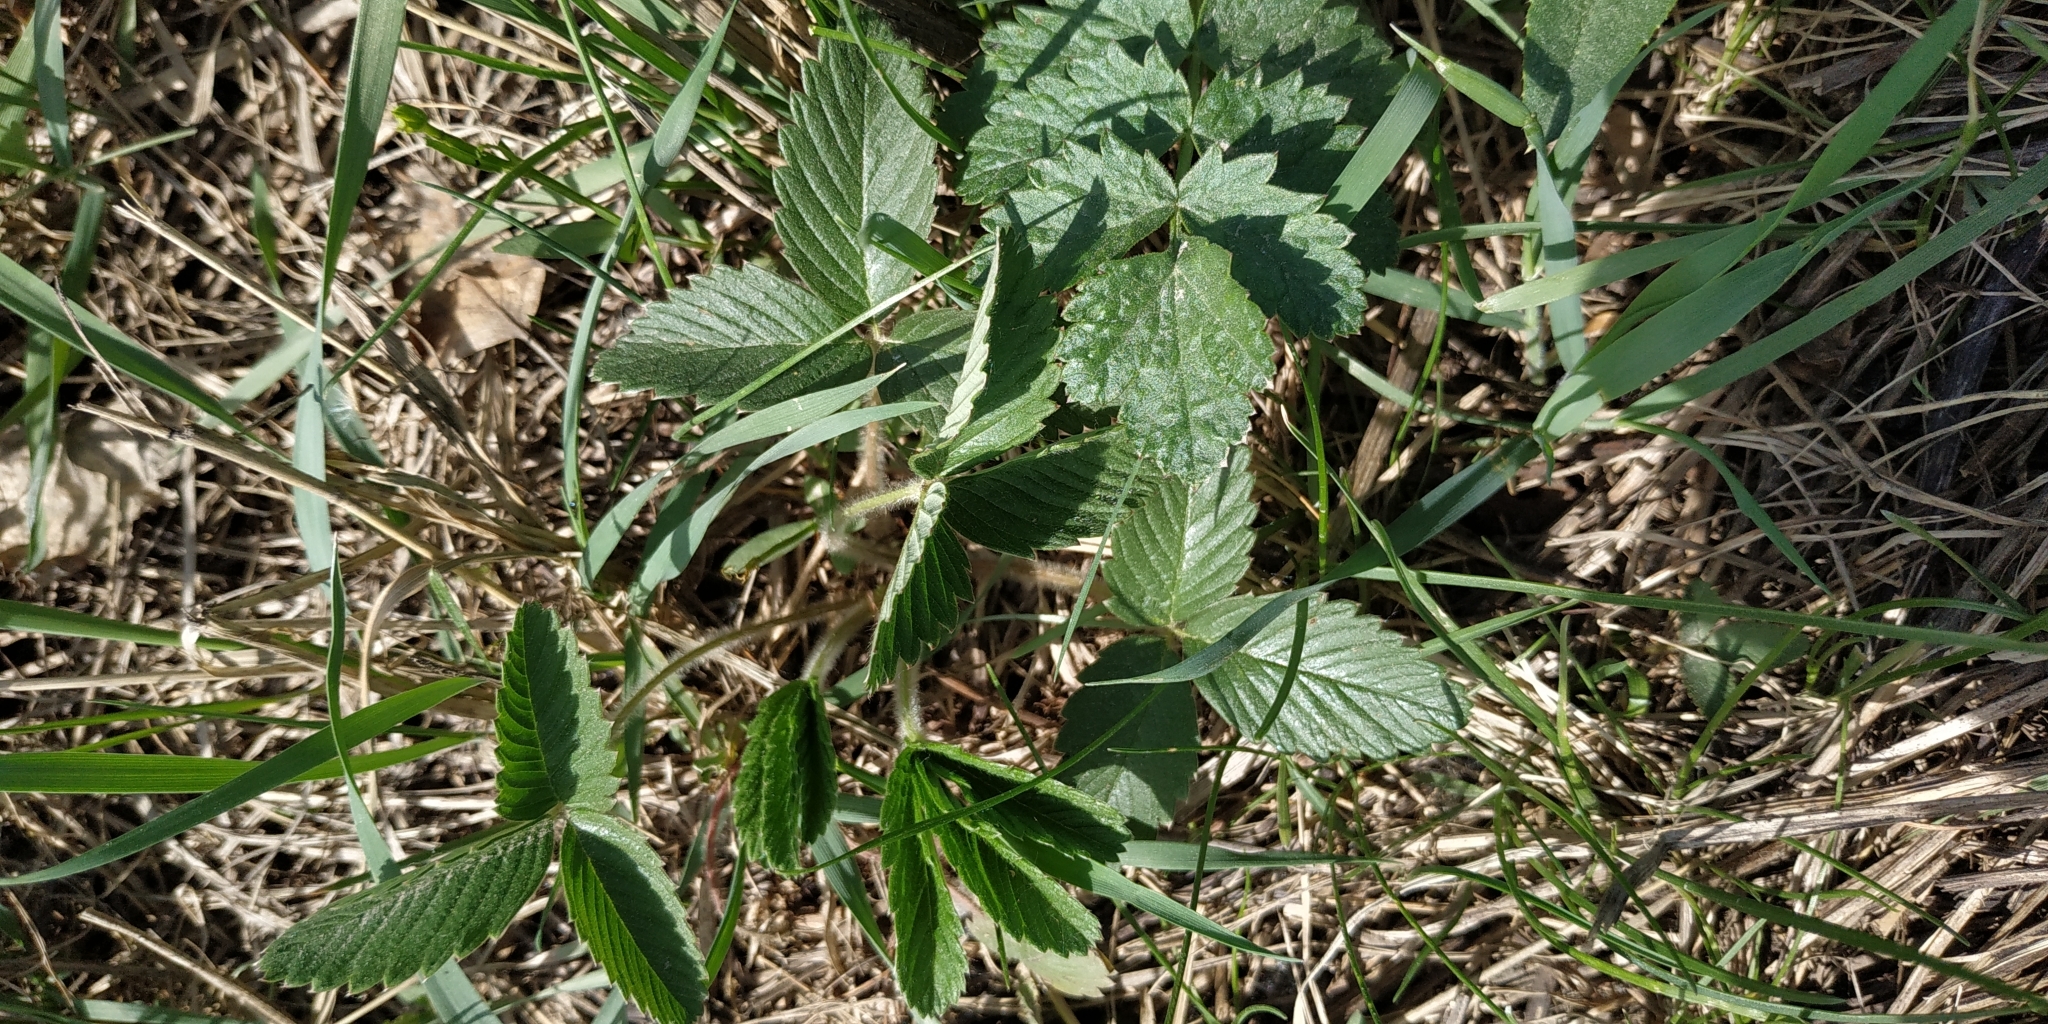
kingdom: Plantae
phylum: Tracheophyta
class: Magnoliopsida
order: Rosales
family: Rosaceae
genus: Fragaria
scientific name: Fragaria viridis
